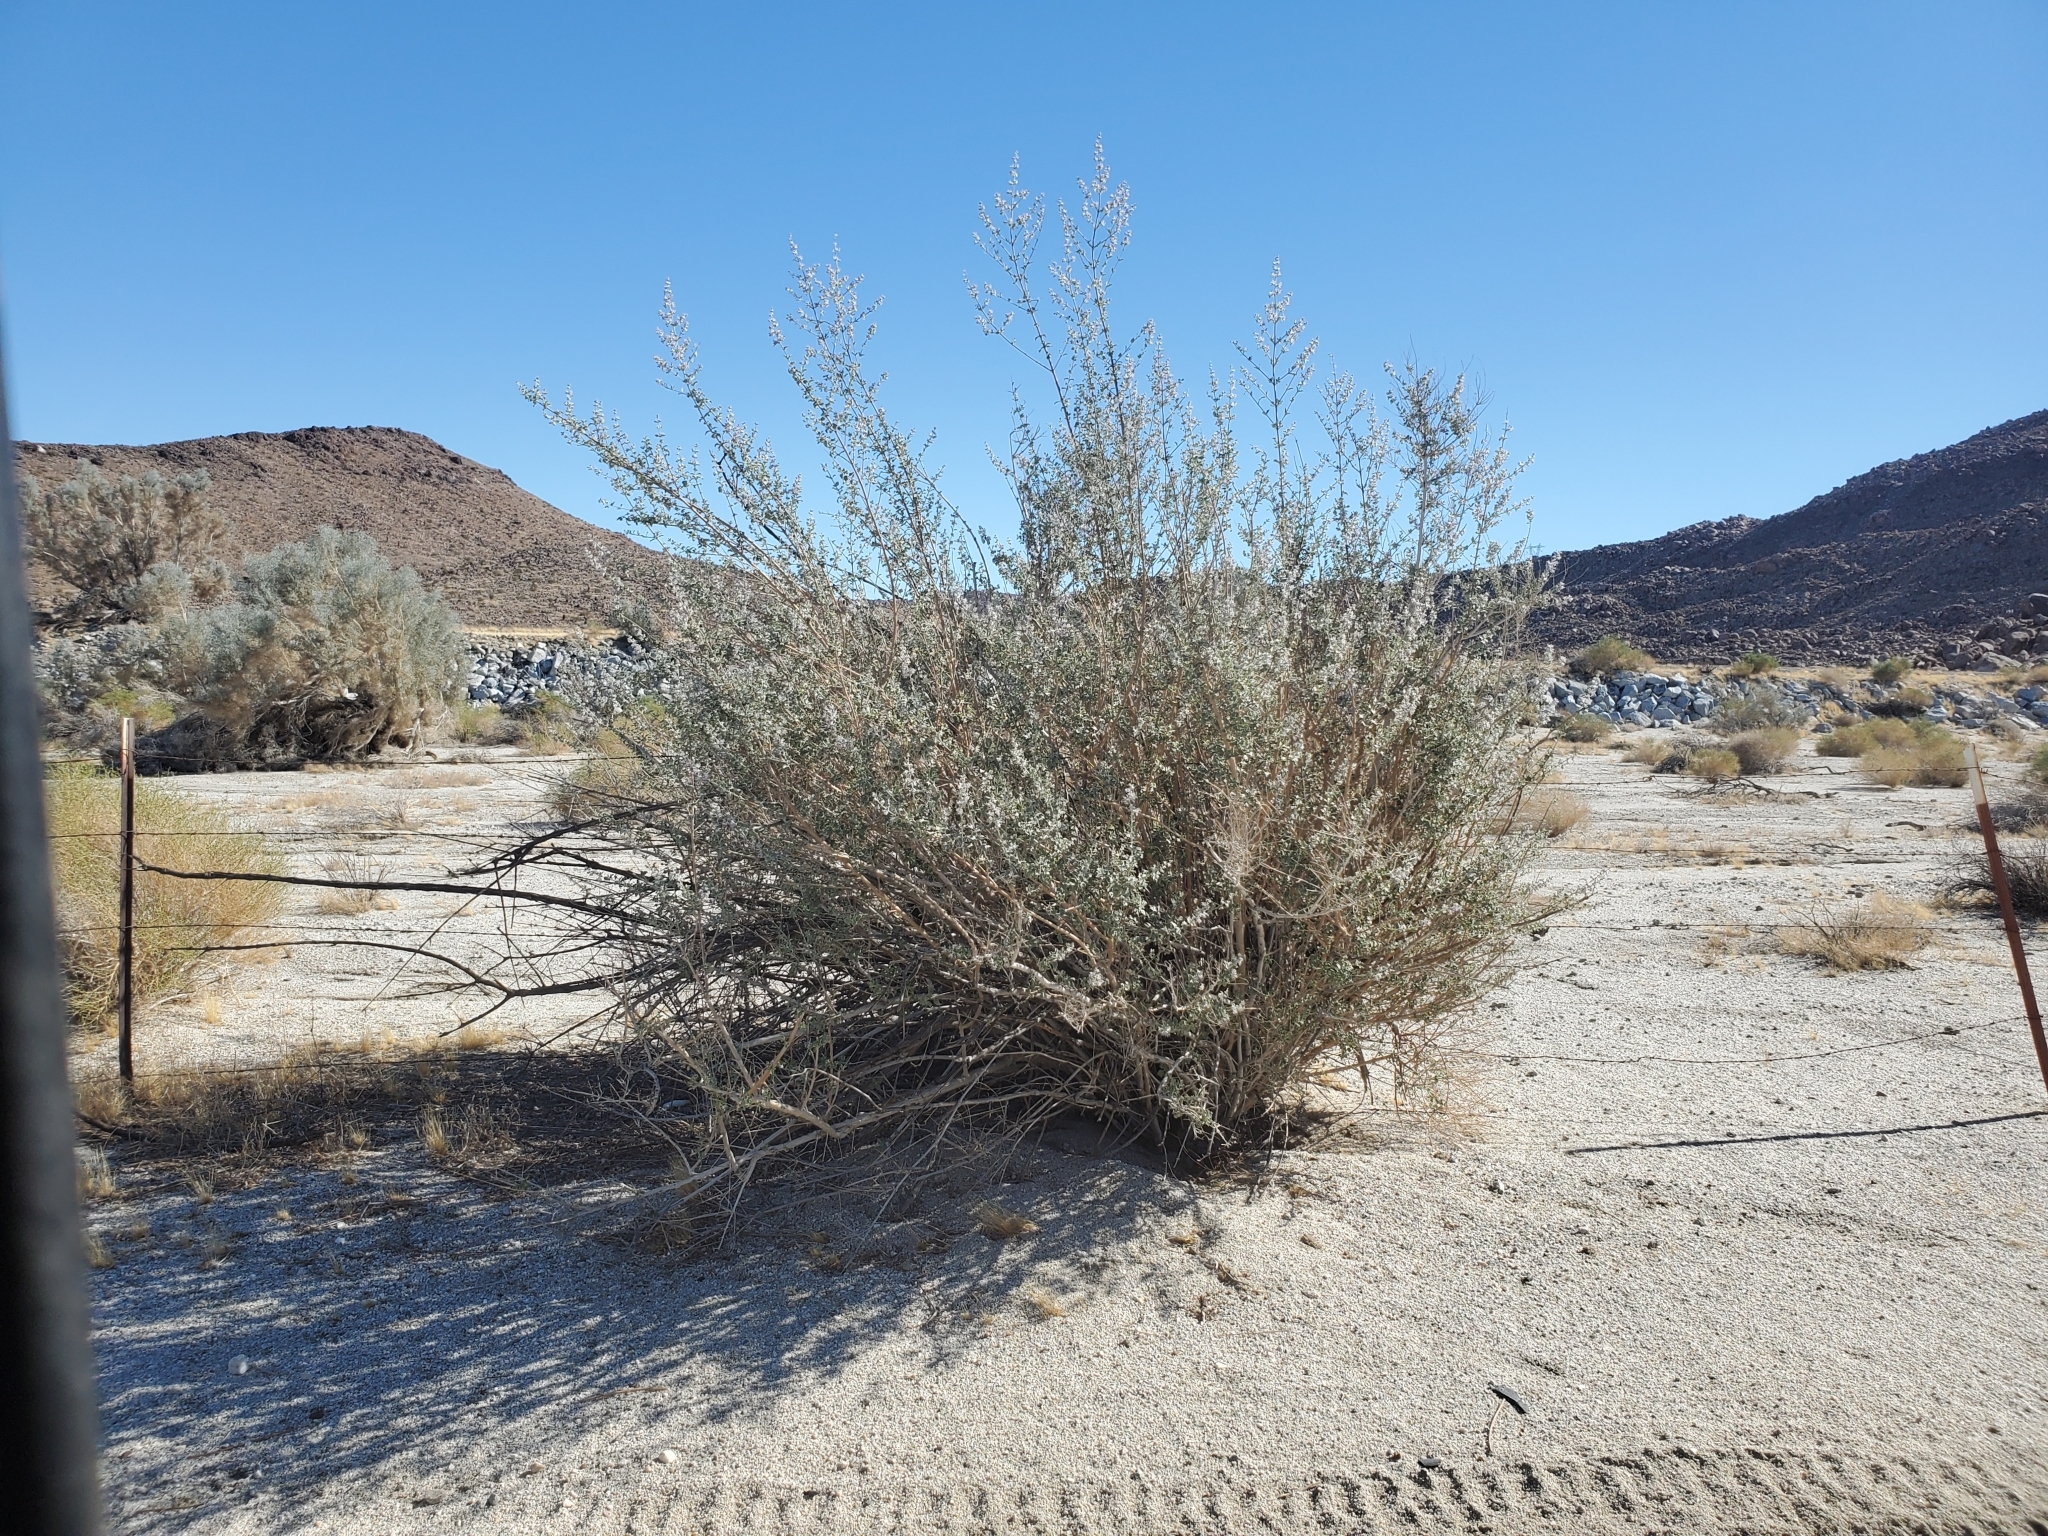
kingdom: Plantae
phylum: Tracheophyta
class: Magnoliopsida
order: Lamiales
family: Lamiaceae
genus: Condea
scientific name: Condea emoryi
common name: Chia
